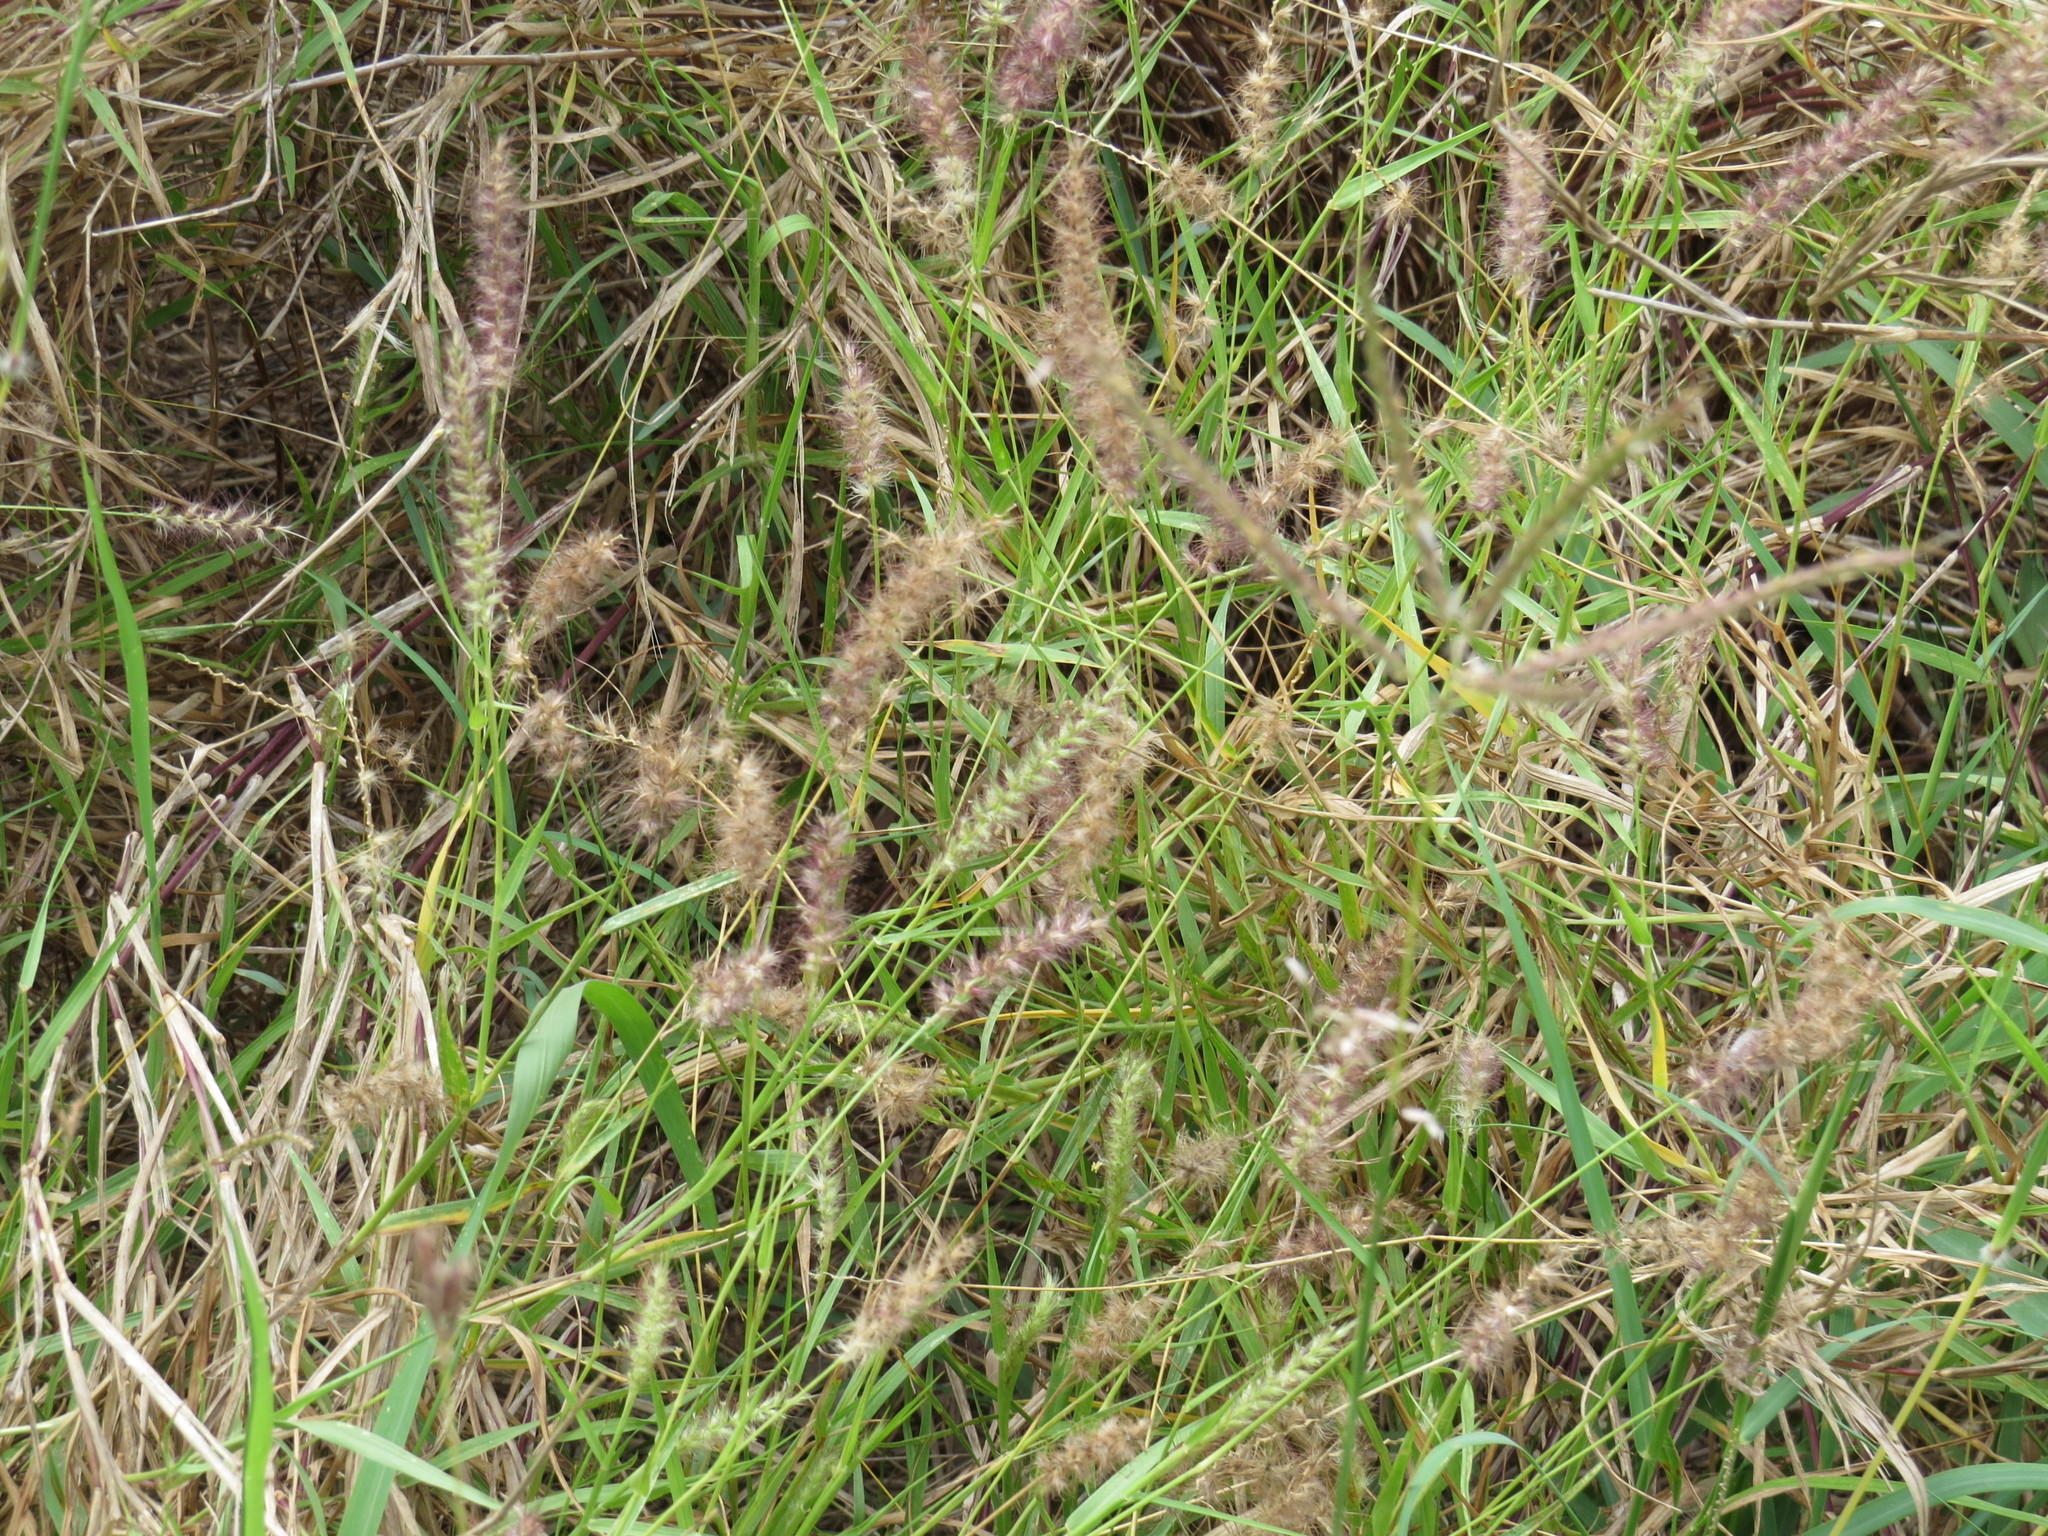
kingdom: Plantae
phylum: Tracheophyta
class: Liliopsida
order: Poales
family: Poaceae
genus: Cenchrus
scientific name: Cenchrus ciliaris
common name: Buffelgrass
